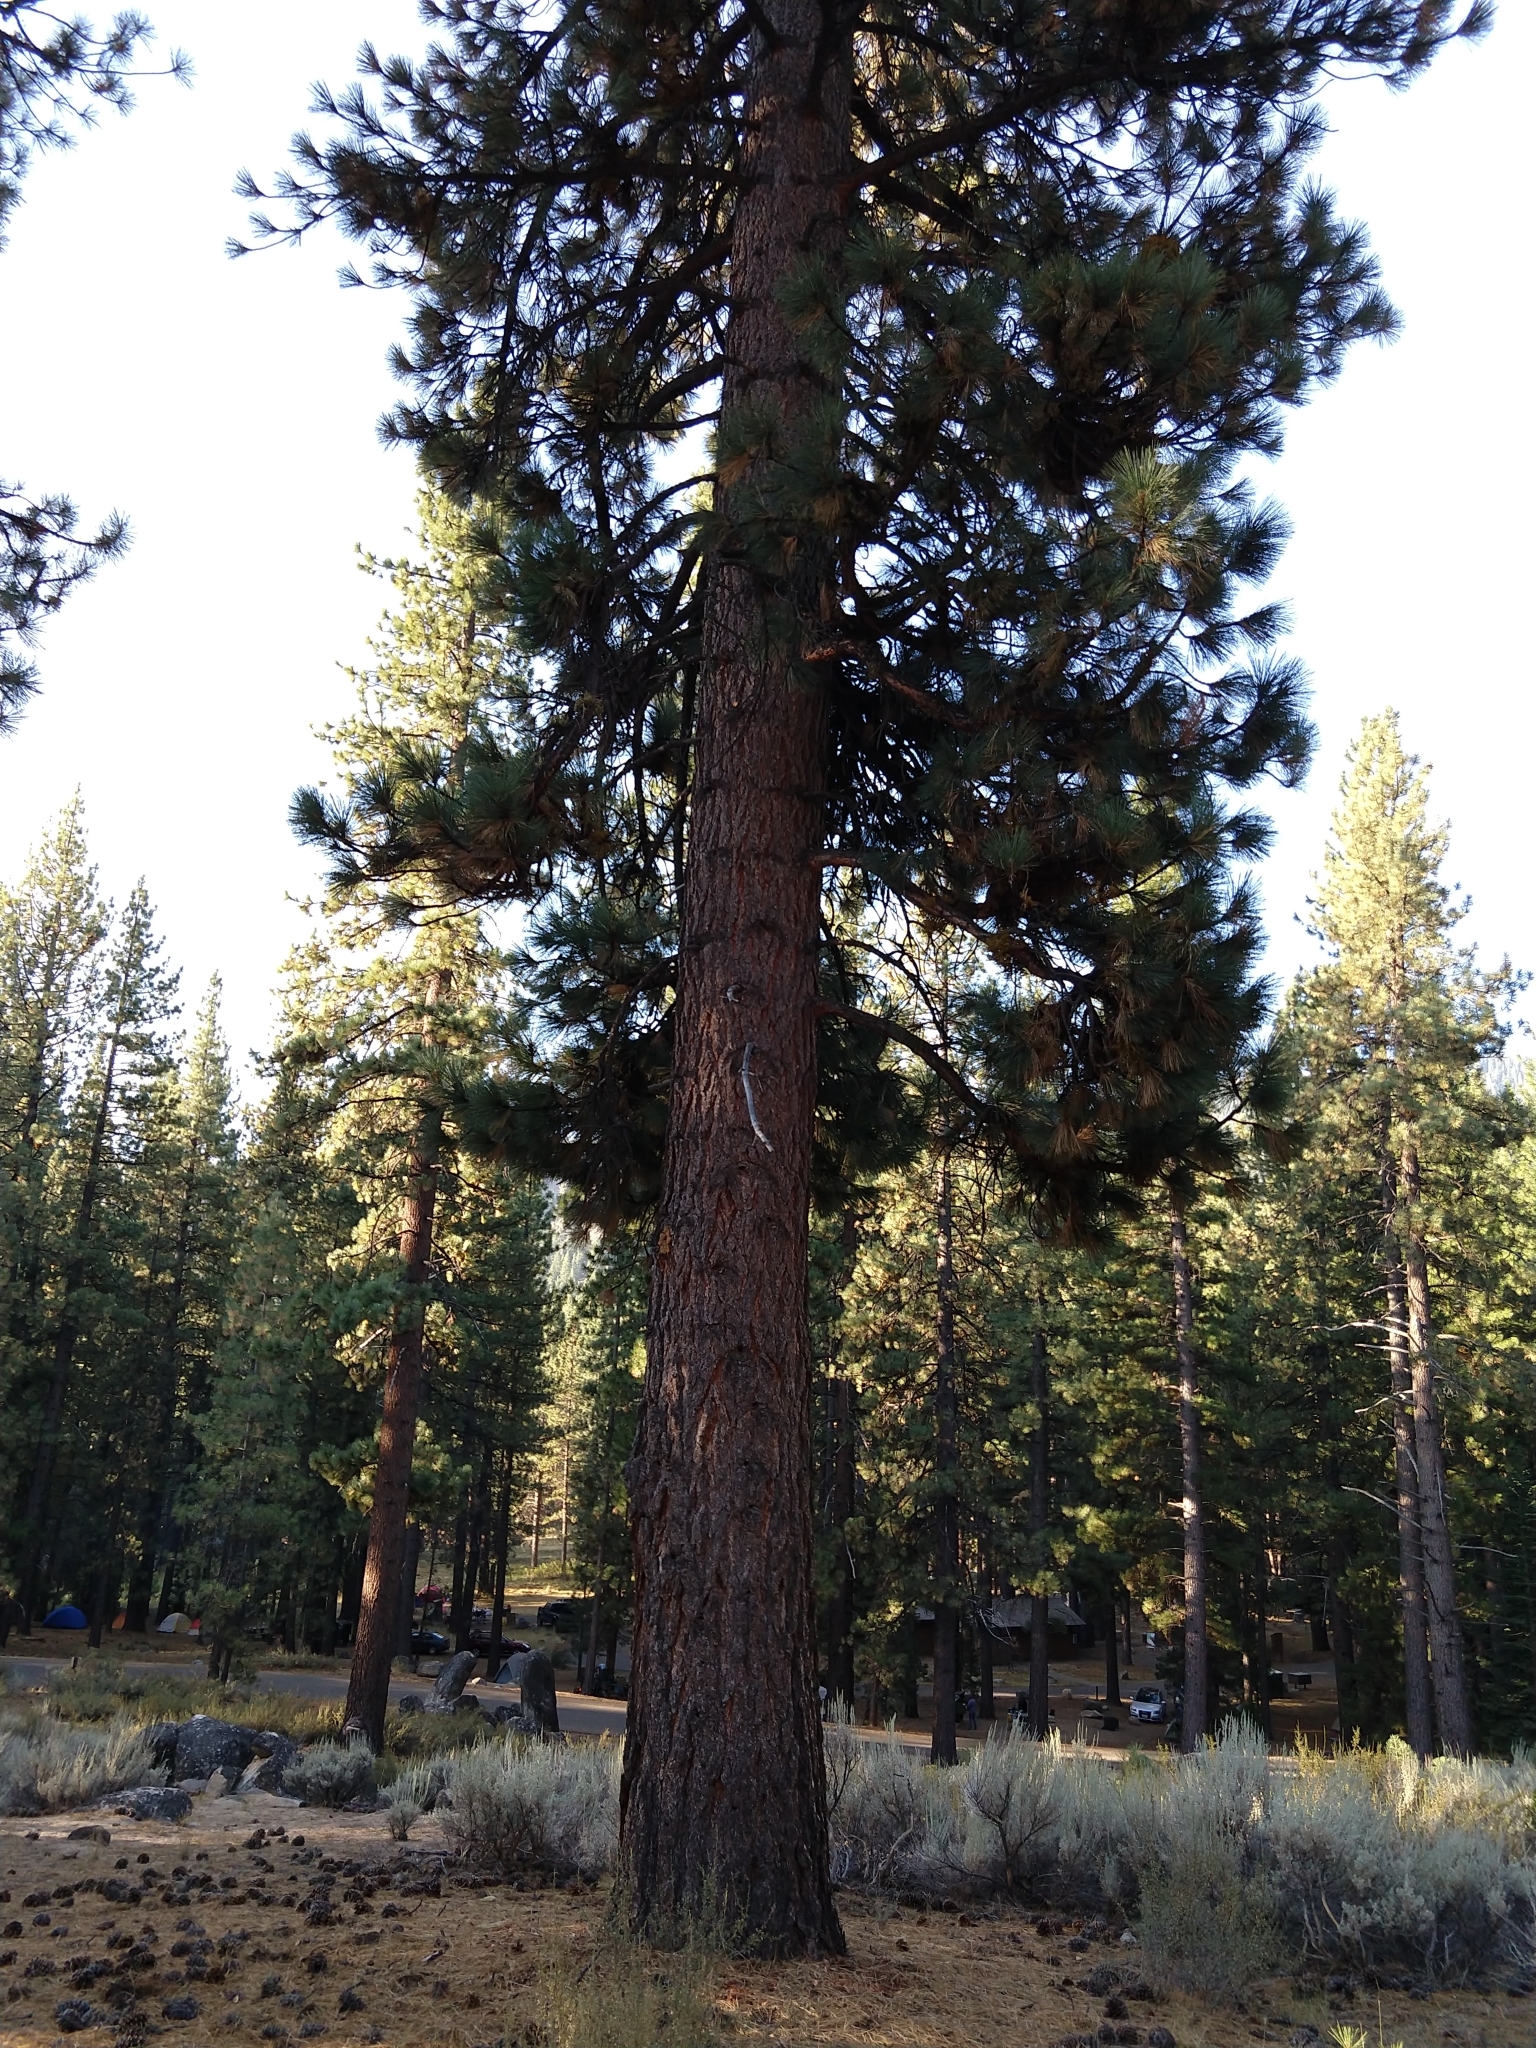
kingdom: Plantae
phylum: Tracheophyta
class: Pinopsida
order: Pinales
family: Pinaceae
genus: Pinus
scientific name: Pinus jeffreyi
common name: Jeffrey pine
